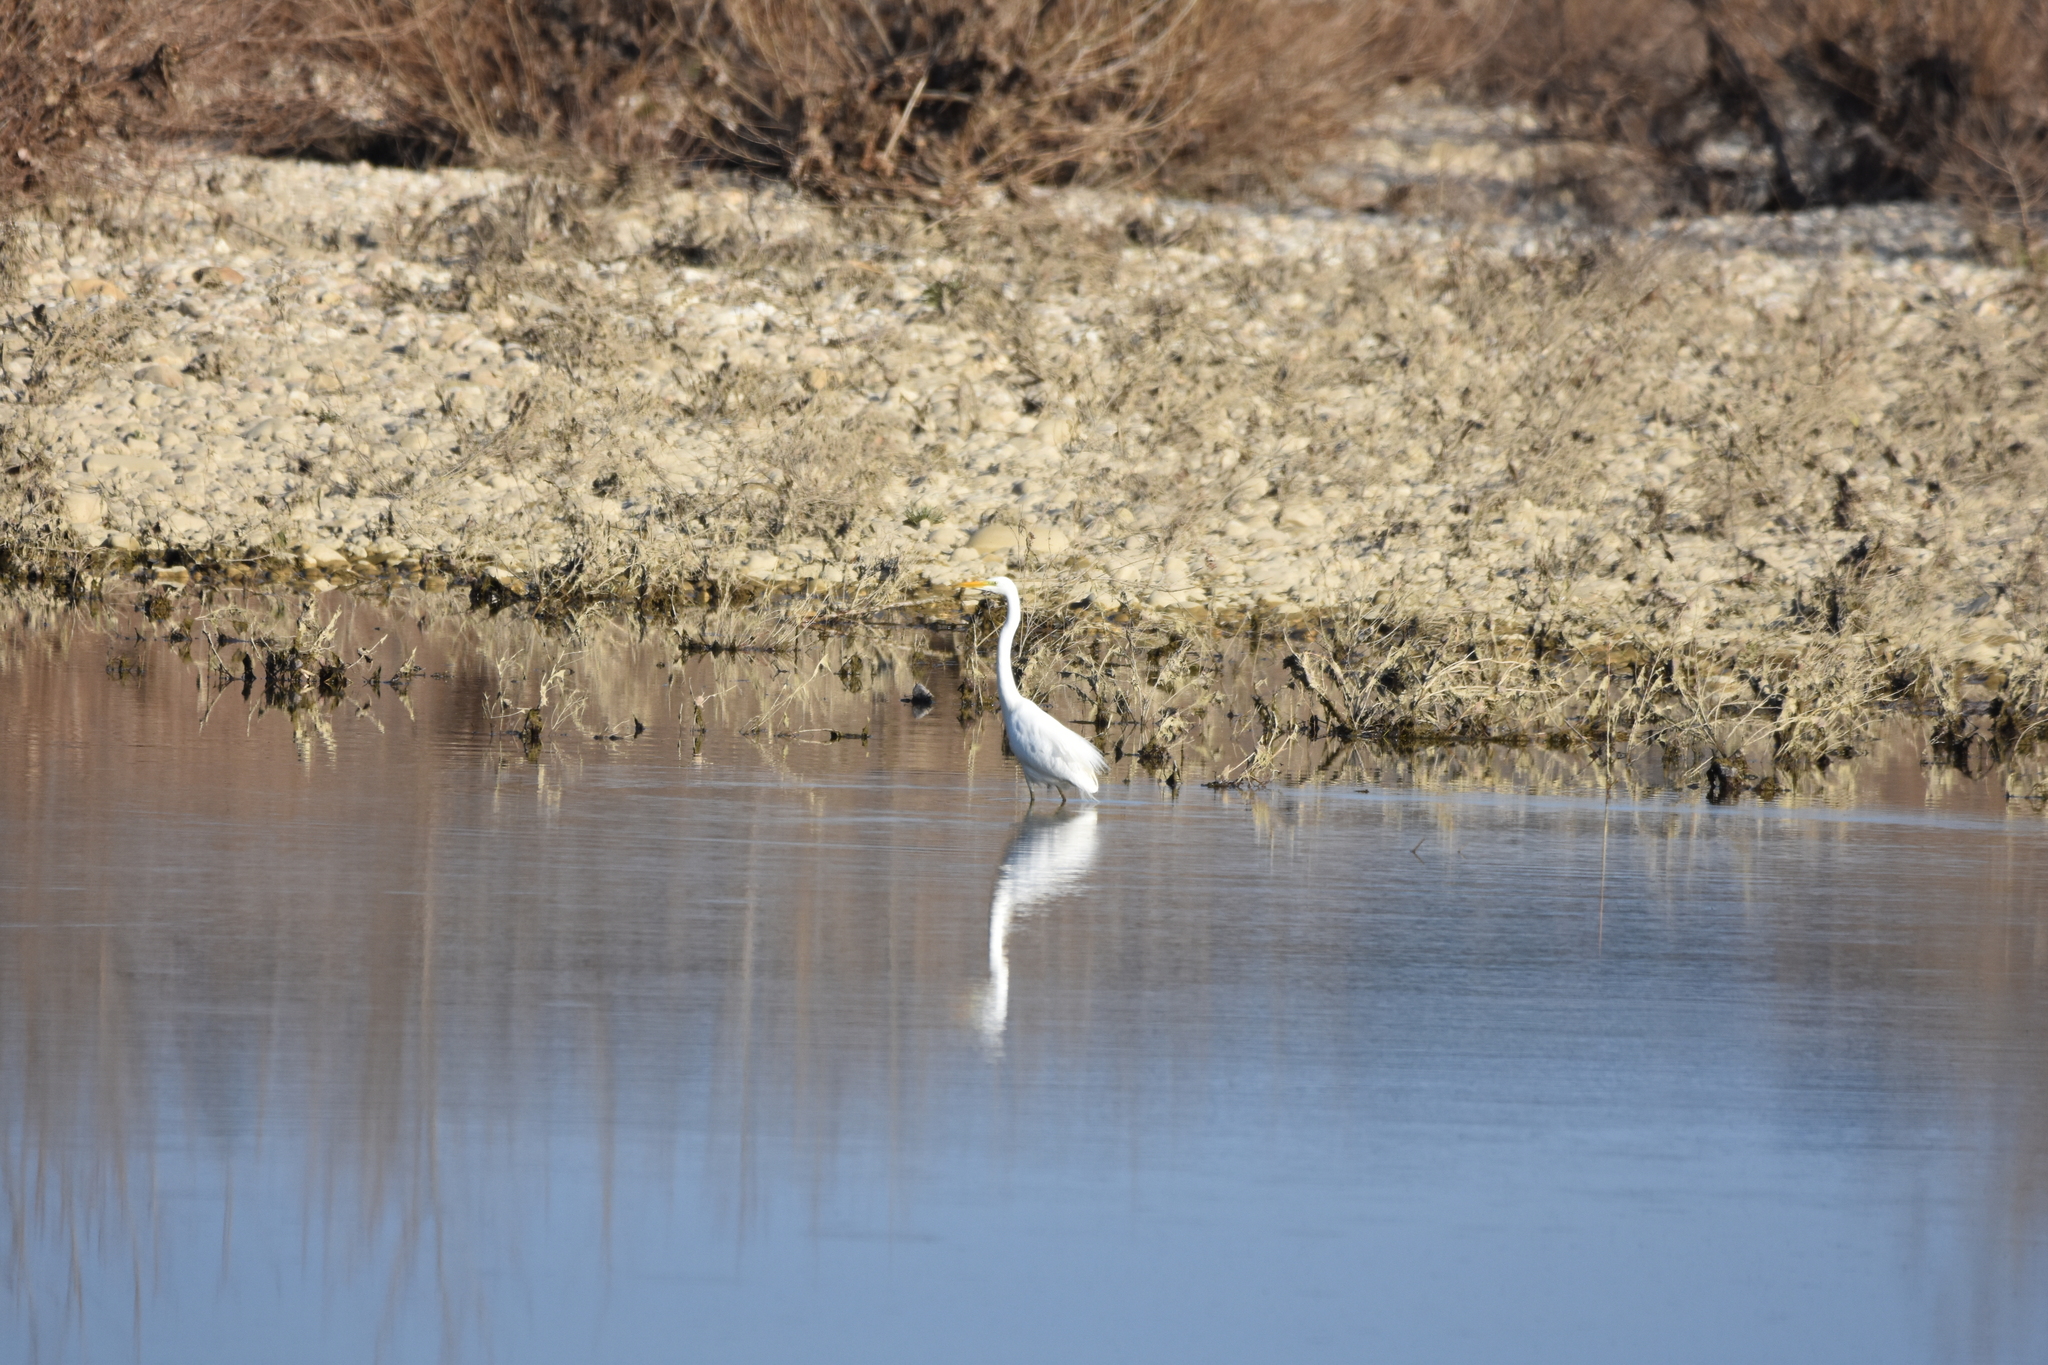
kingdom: Animalia
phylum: Chordata
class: Aves
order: Pelecaniformes
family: Ardeidae
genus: Ardea
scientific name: Ardea alba
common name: Great egret
